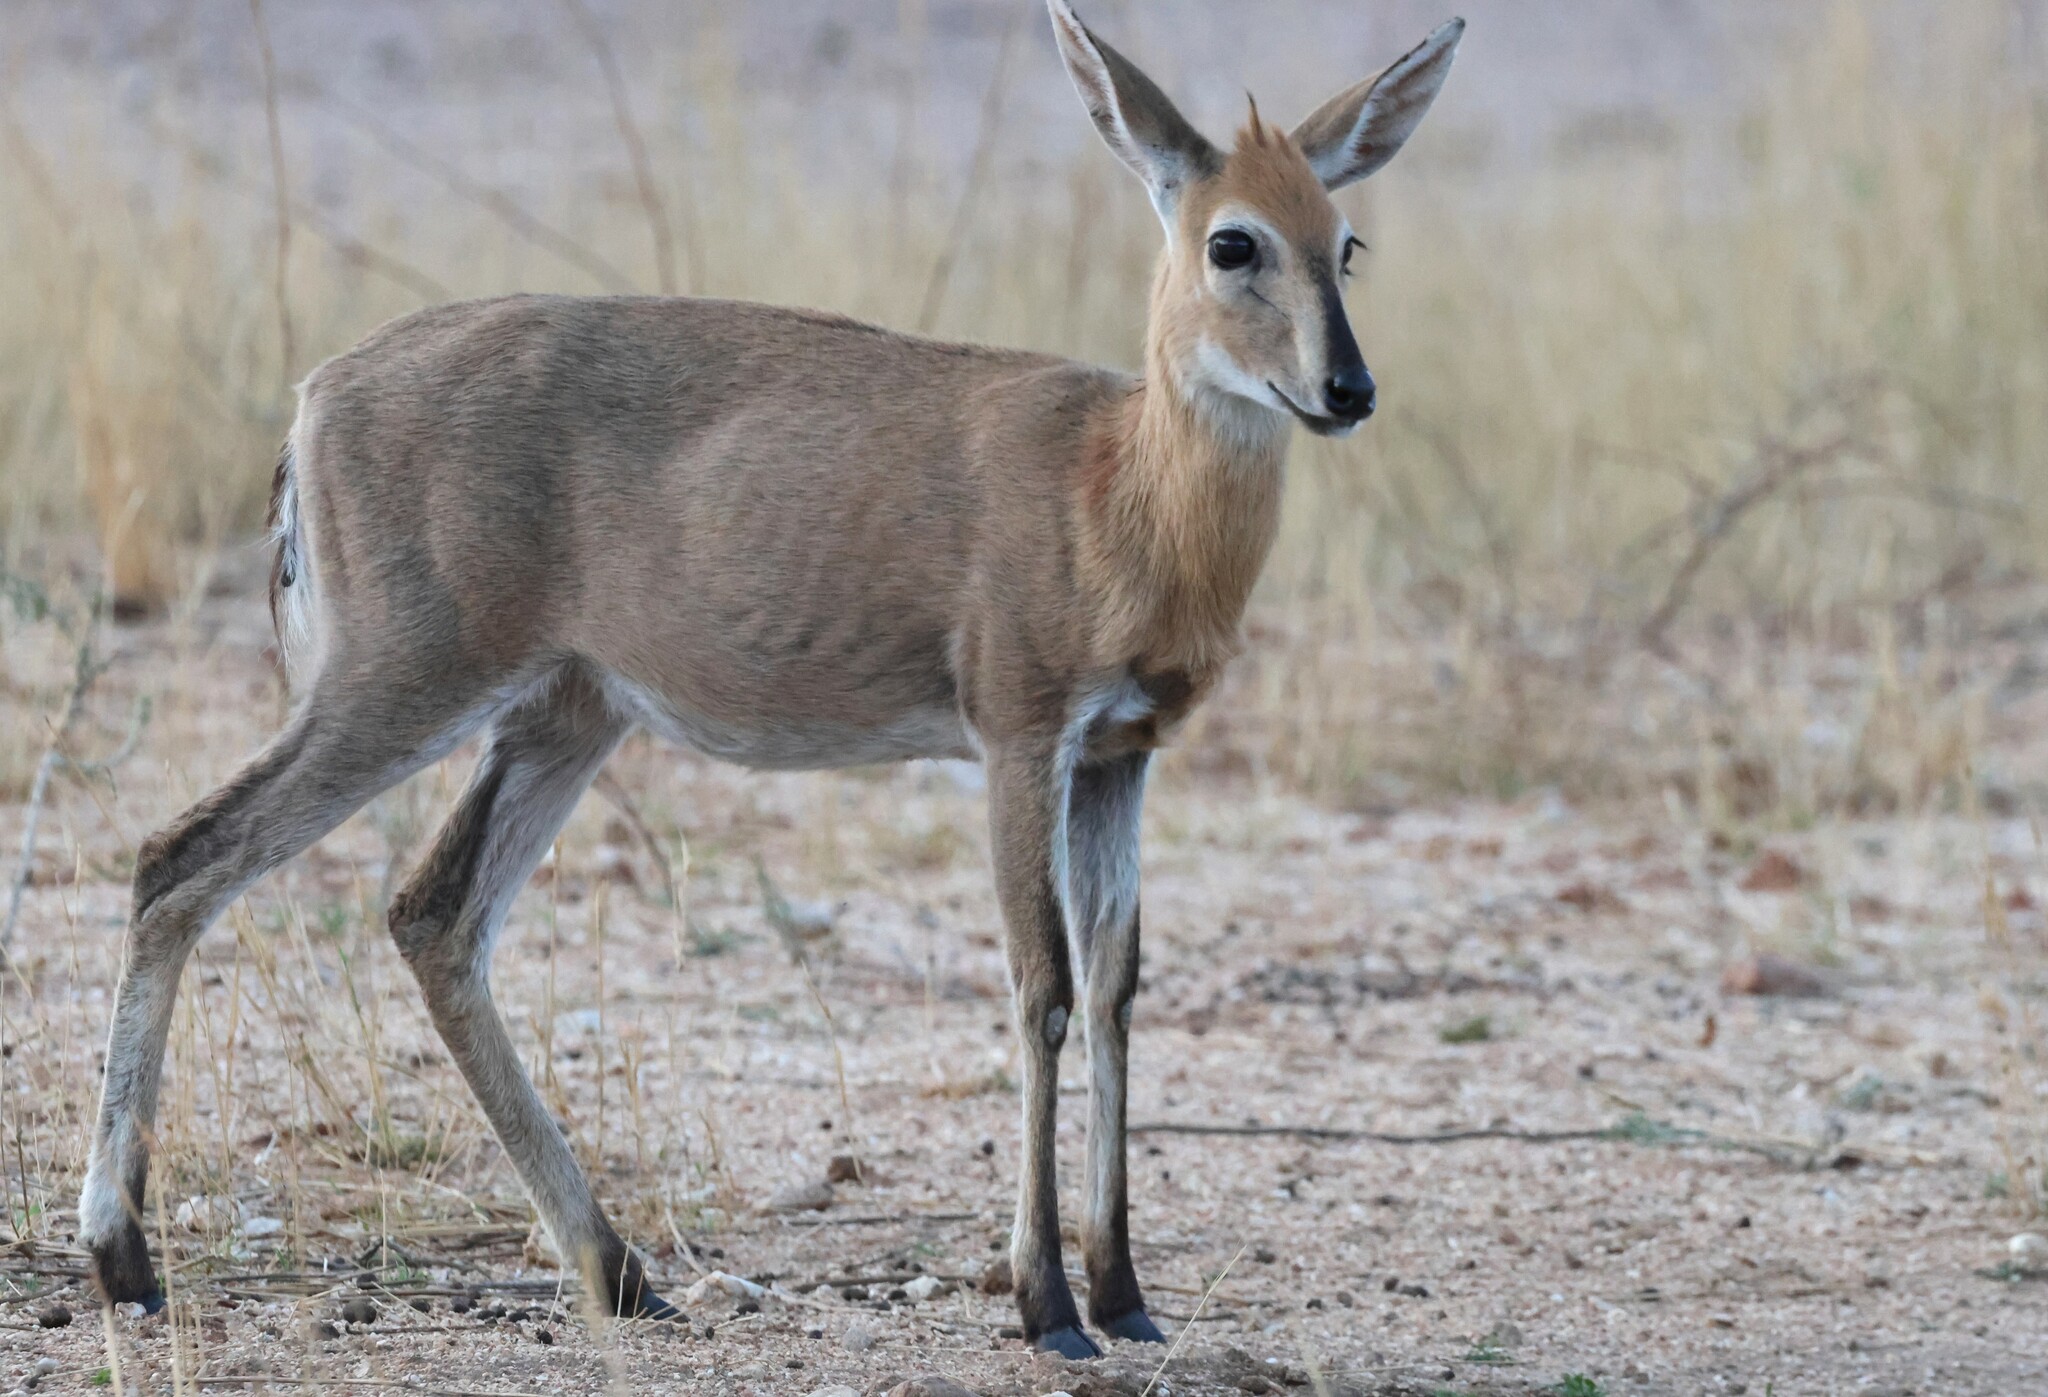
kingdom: Animalia
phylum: Chordata
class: Mammalia
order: Artiodactyla
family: Bovidae
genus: Sylvicapra
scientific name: Sylvicapra grimmia
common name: Bush duiker
